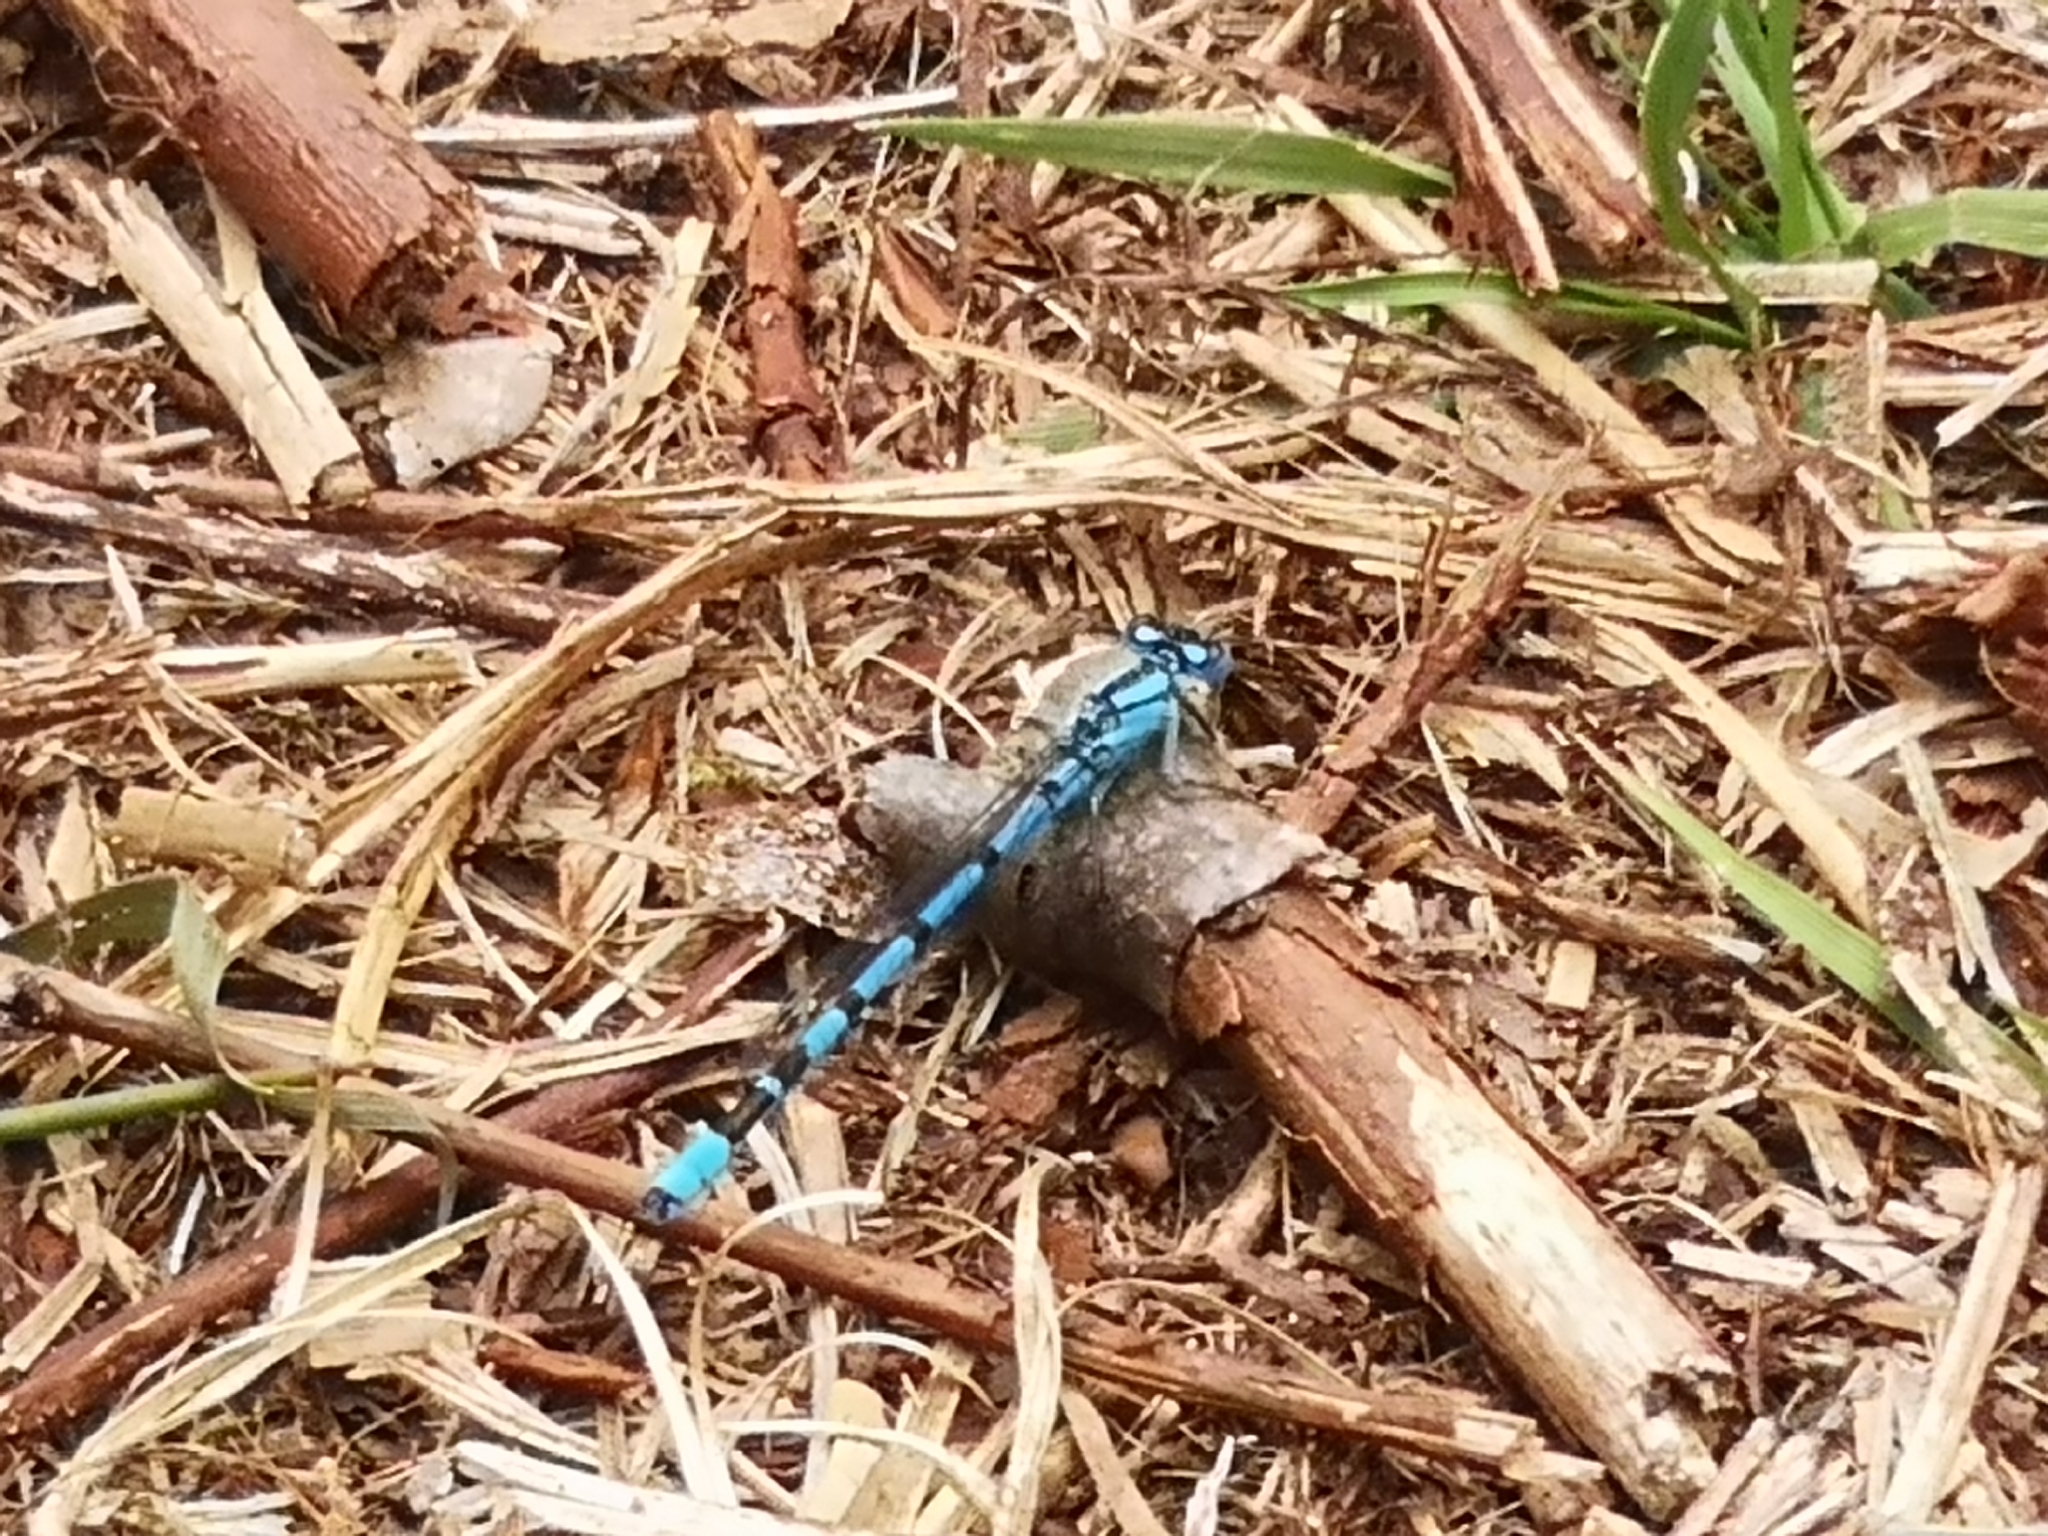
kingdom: Animalia
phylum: Arthropoda
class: Insecta
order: Odonata
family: Coenagrionidae
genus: Enallagma
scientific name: Enallagma cyathigerum
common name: Common blue damselfly
